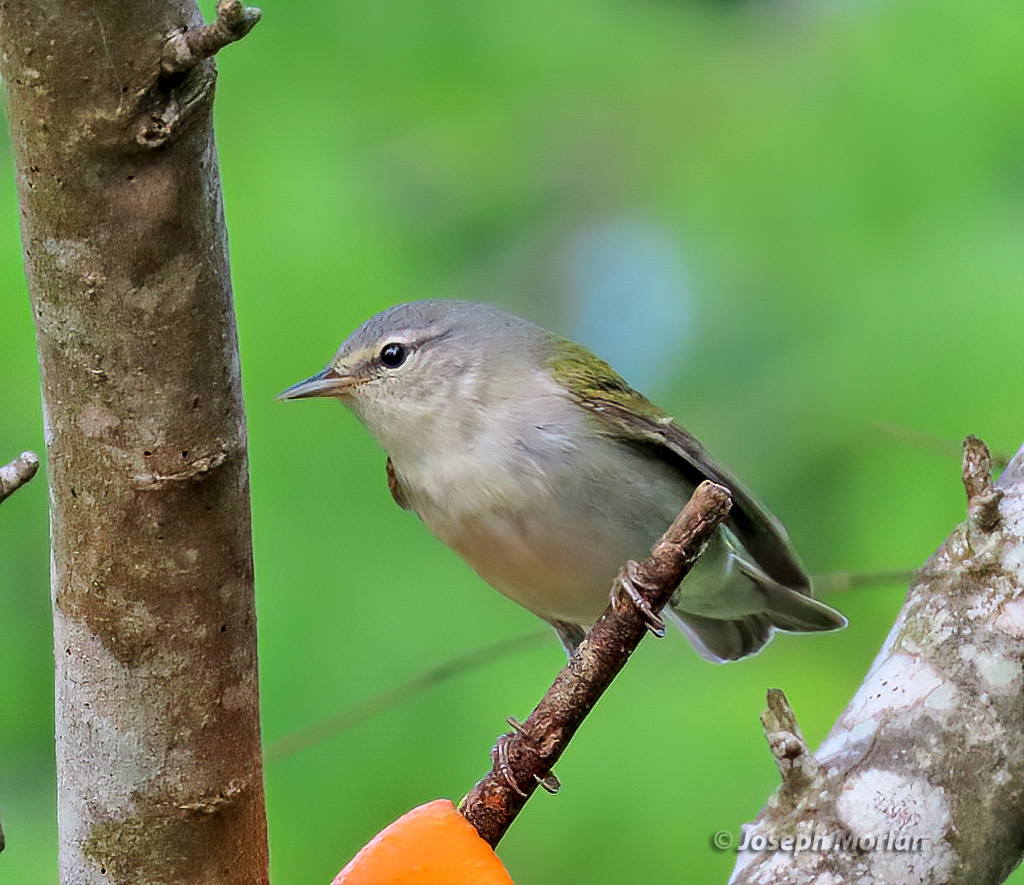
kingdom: Animalia
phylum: Chordata
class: Aves
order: Passeriformes
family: Parulidae
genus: Leiothlypis
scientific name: Leiothlypis peregrina
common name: Tennessee warbler
